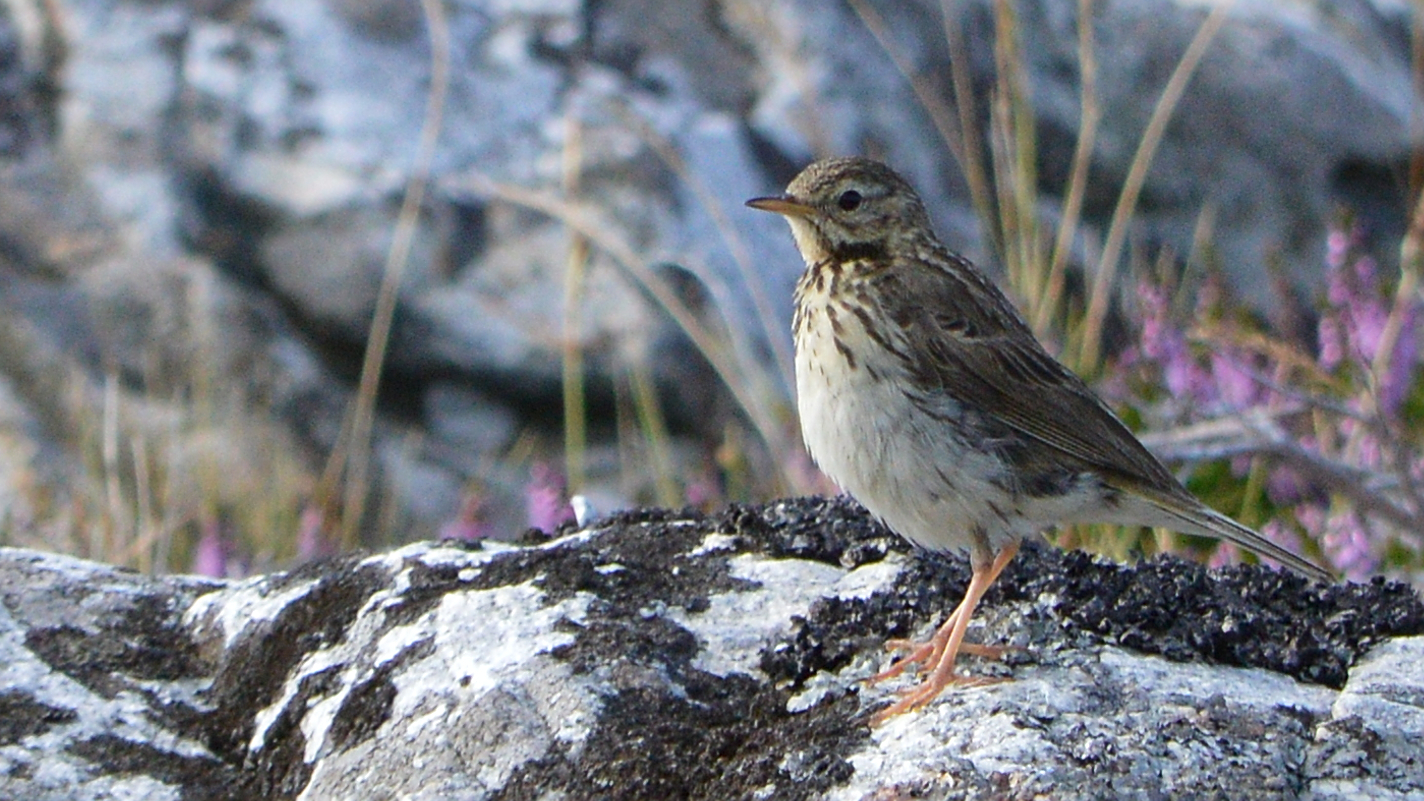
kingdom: Animalia
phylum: Chordata
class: Aves
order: Passeriformes
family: Motacillidae
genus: Anthus
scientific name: Anthus trivialis
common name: Tree pipit
